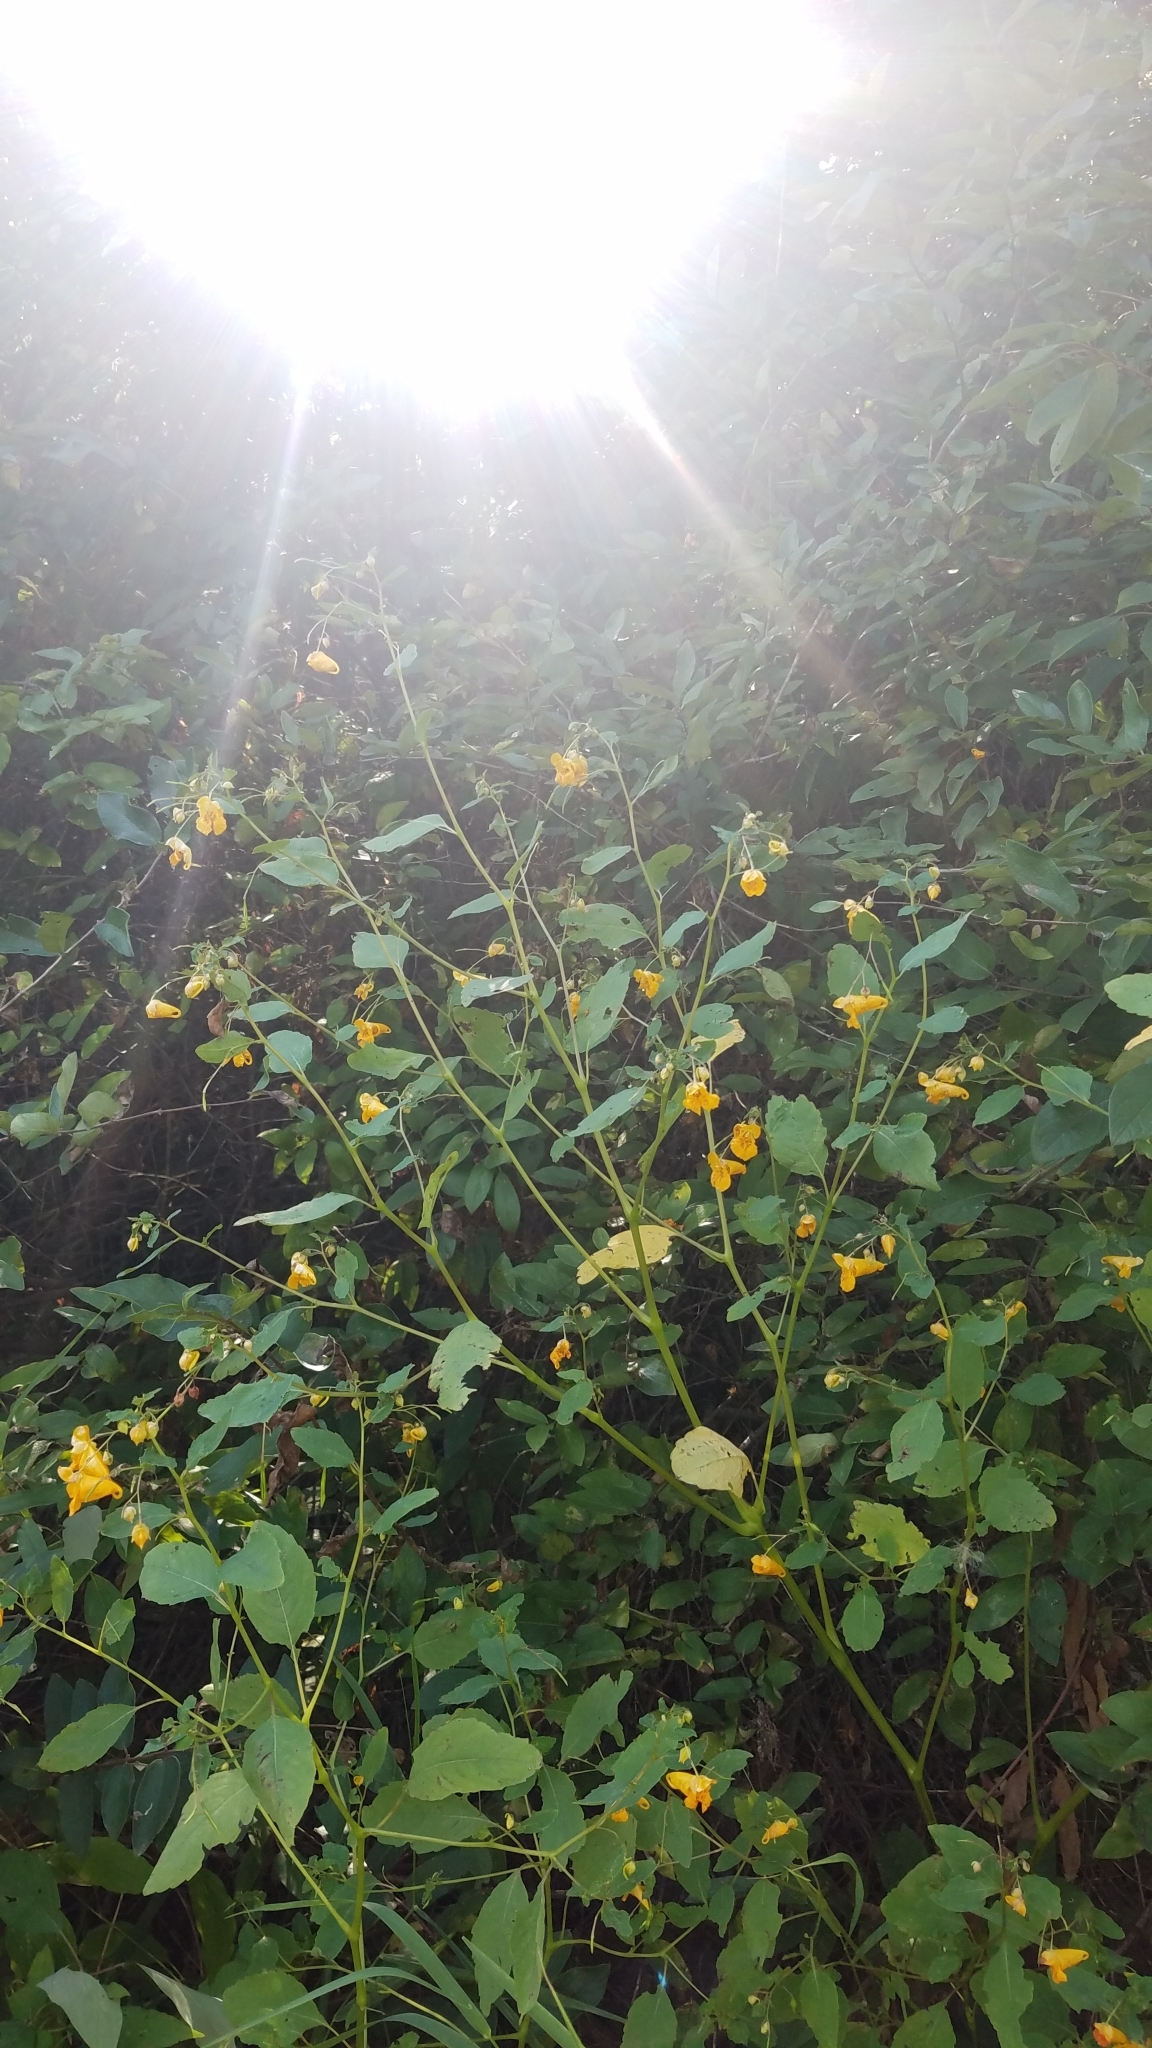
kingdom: Plantae
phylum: Tracheophyta
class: Magnoliopsida
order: Ericales
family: Balsaminaceae
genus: Impatiens
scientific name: Impatiens capensis
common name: Orange balsam
